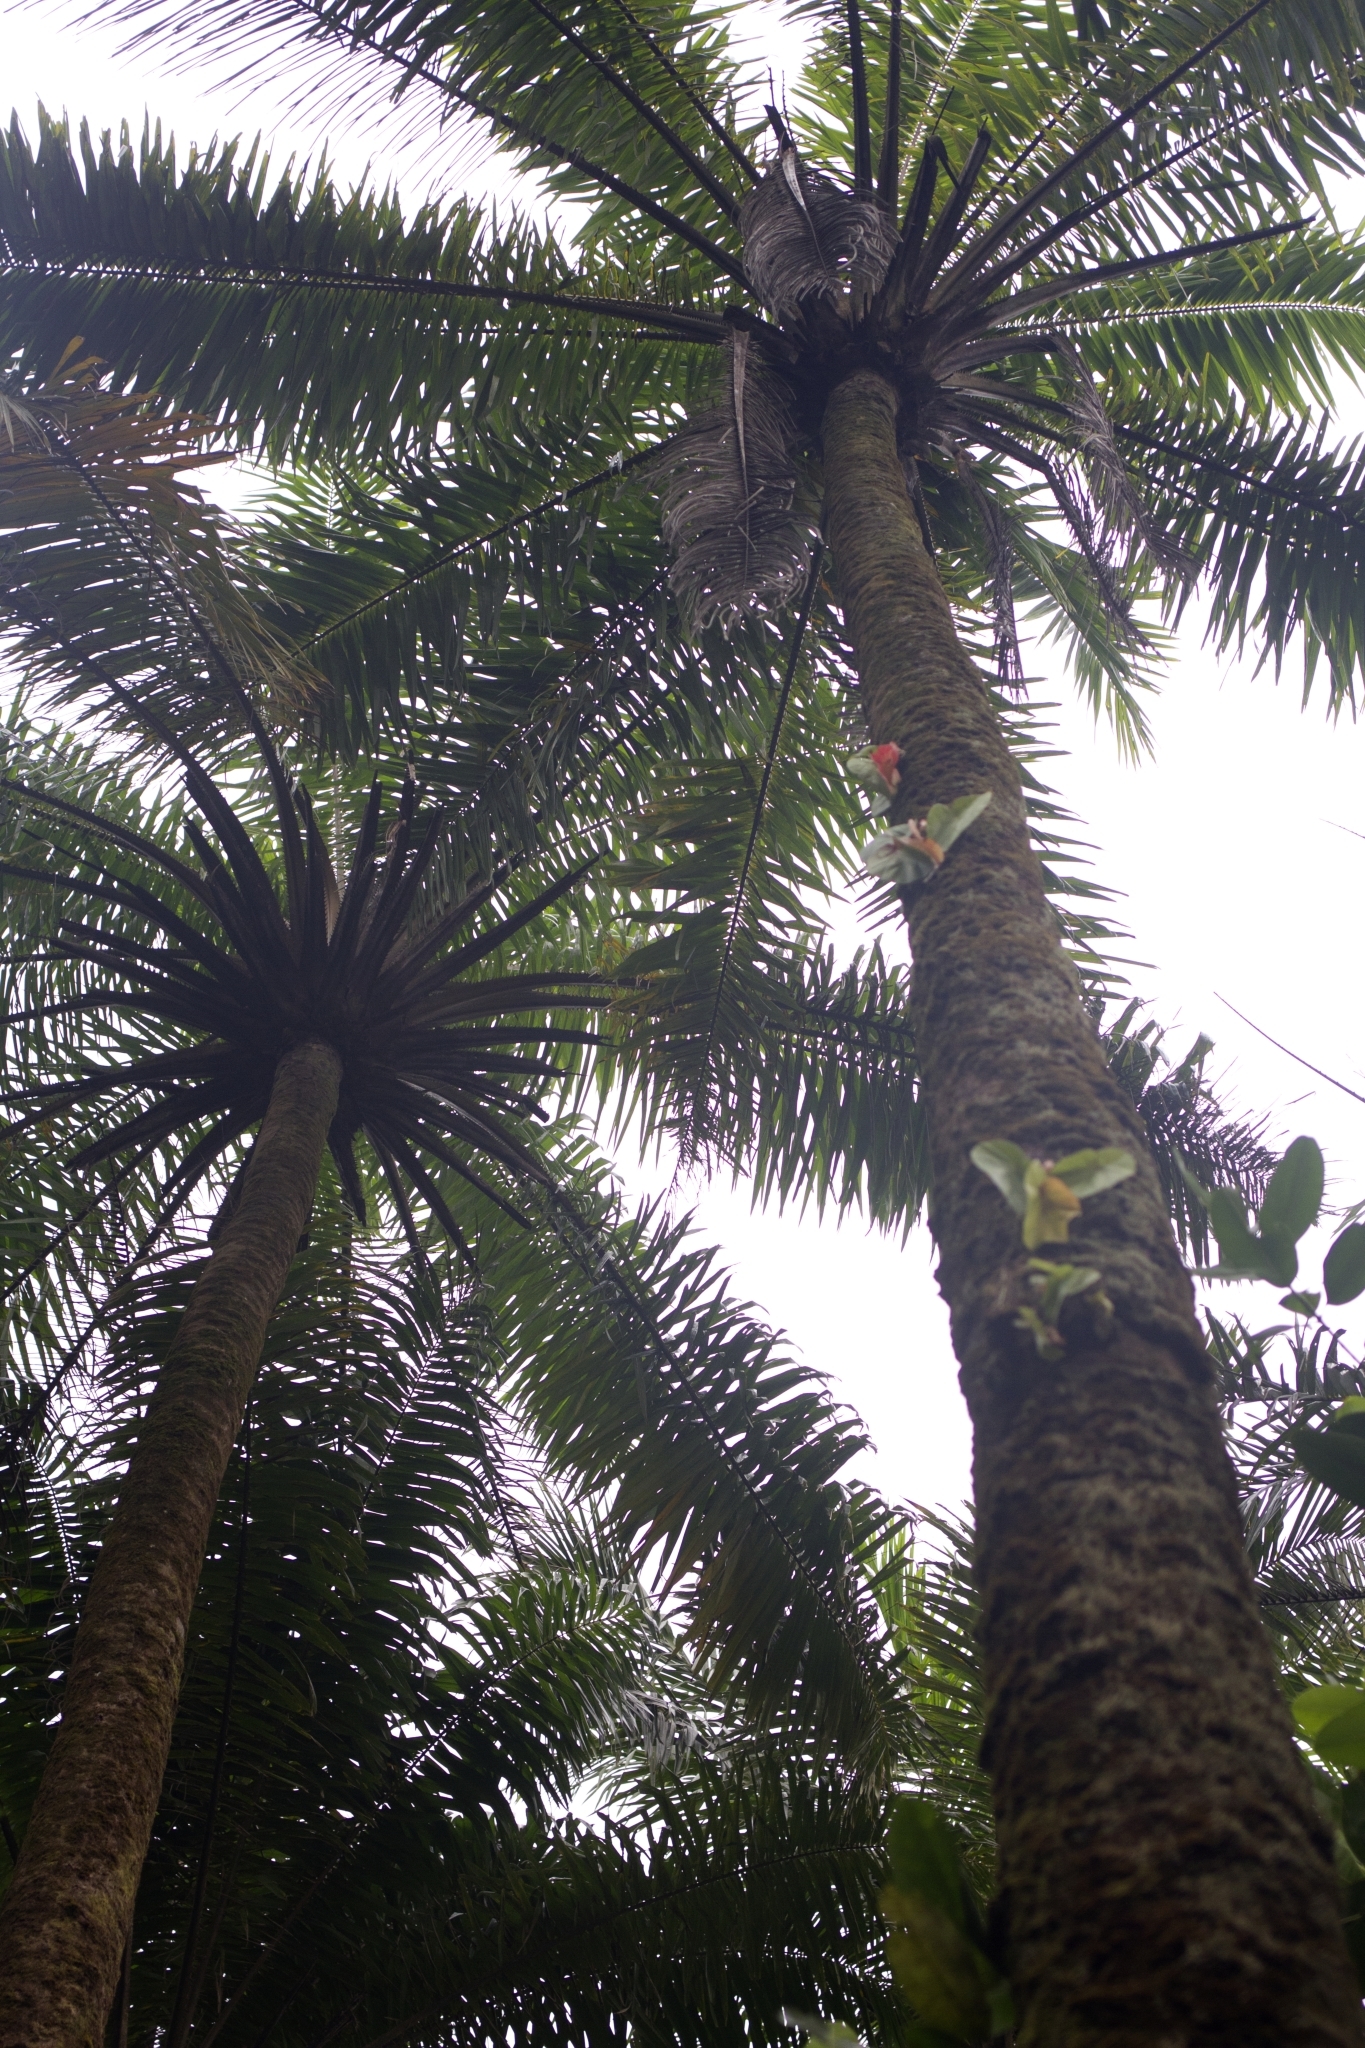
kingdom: Plantae
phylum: Tracheophyta
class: Liliopsida
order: Arecales
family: Arecaceae
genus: Elaeis
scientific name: Elaeis guineensis
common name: Oil palm
